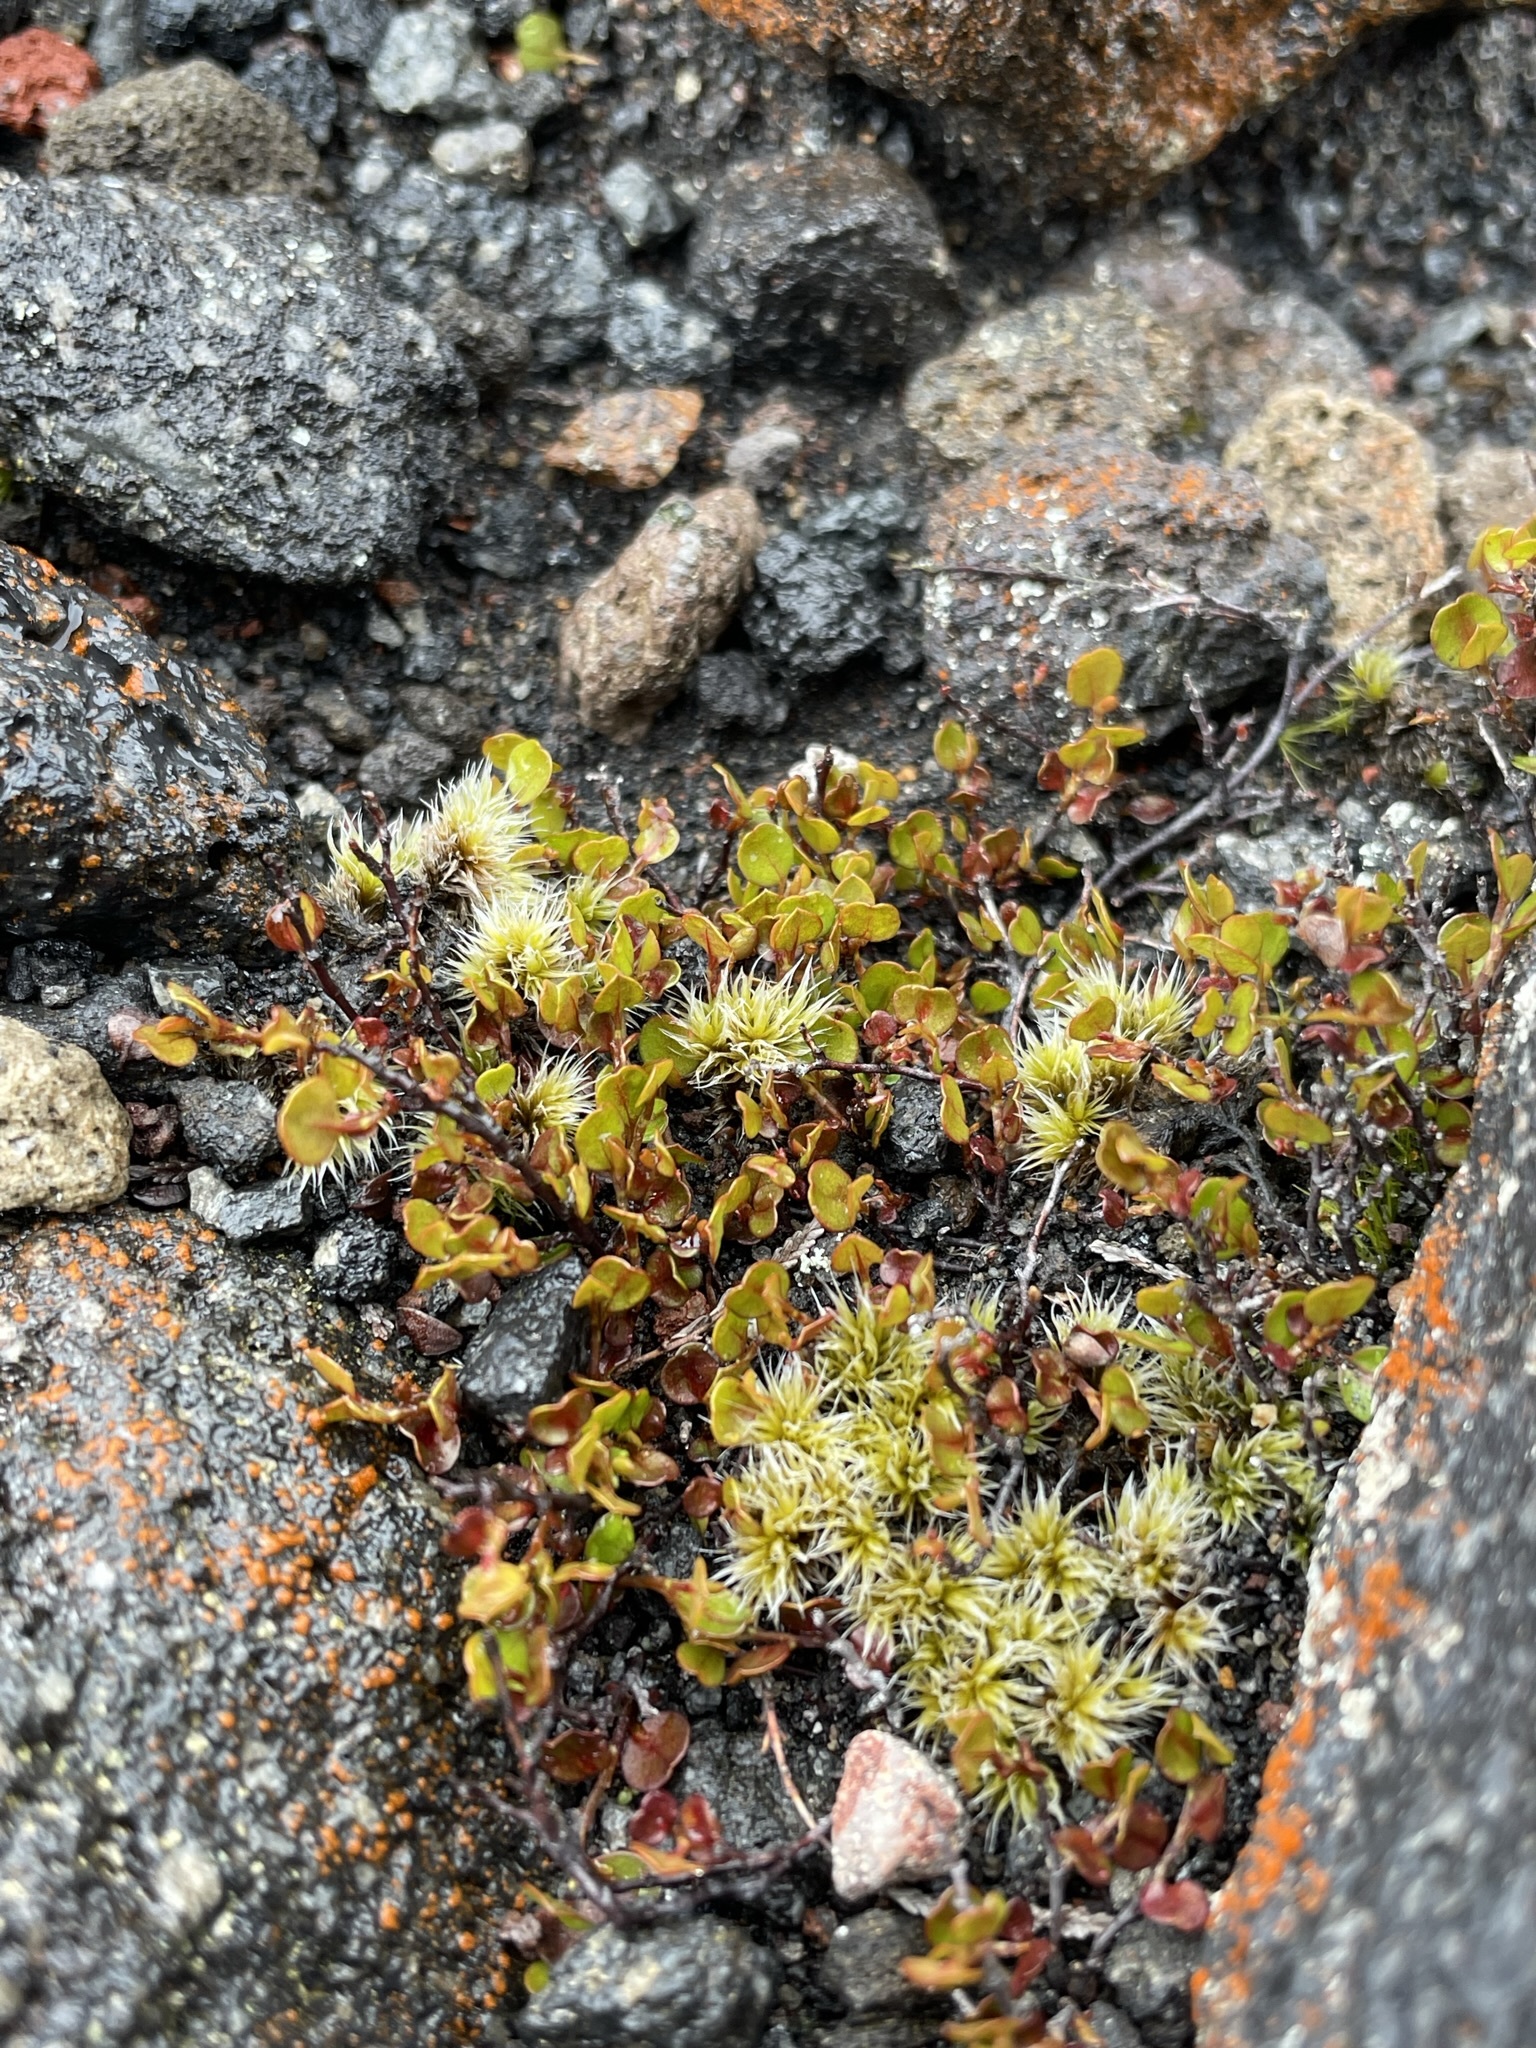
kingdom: Plantae
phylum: Tracheophyta
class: Magnoliopsida
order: Caryophyllales
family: Polygonaceae
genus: Muehlenbeckia
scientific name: Muehlenbeckia axillaris
